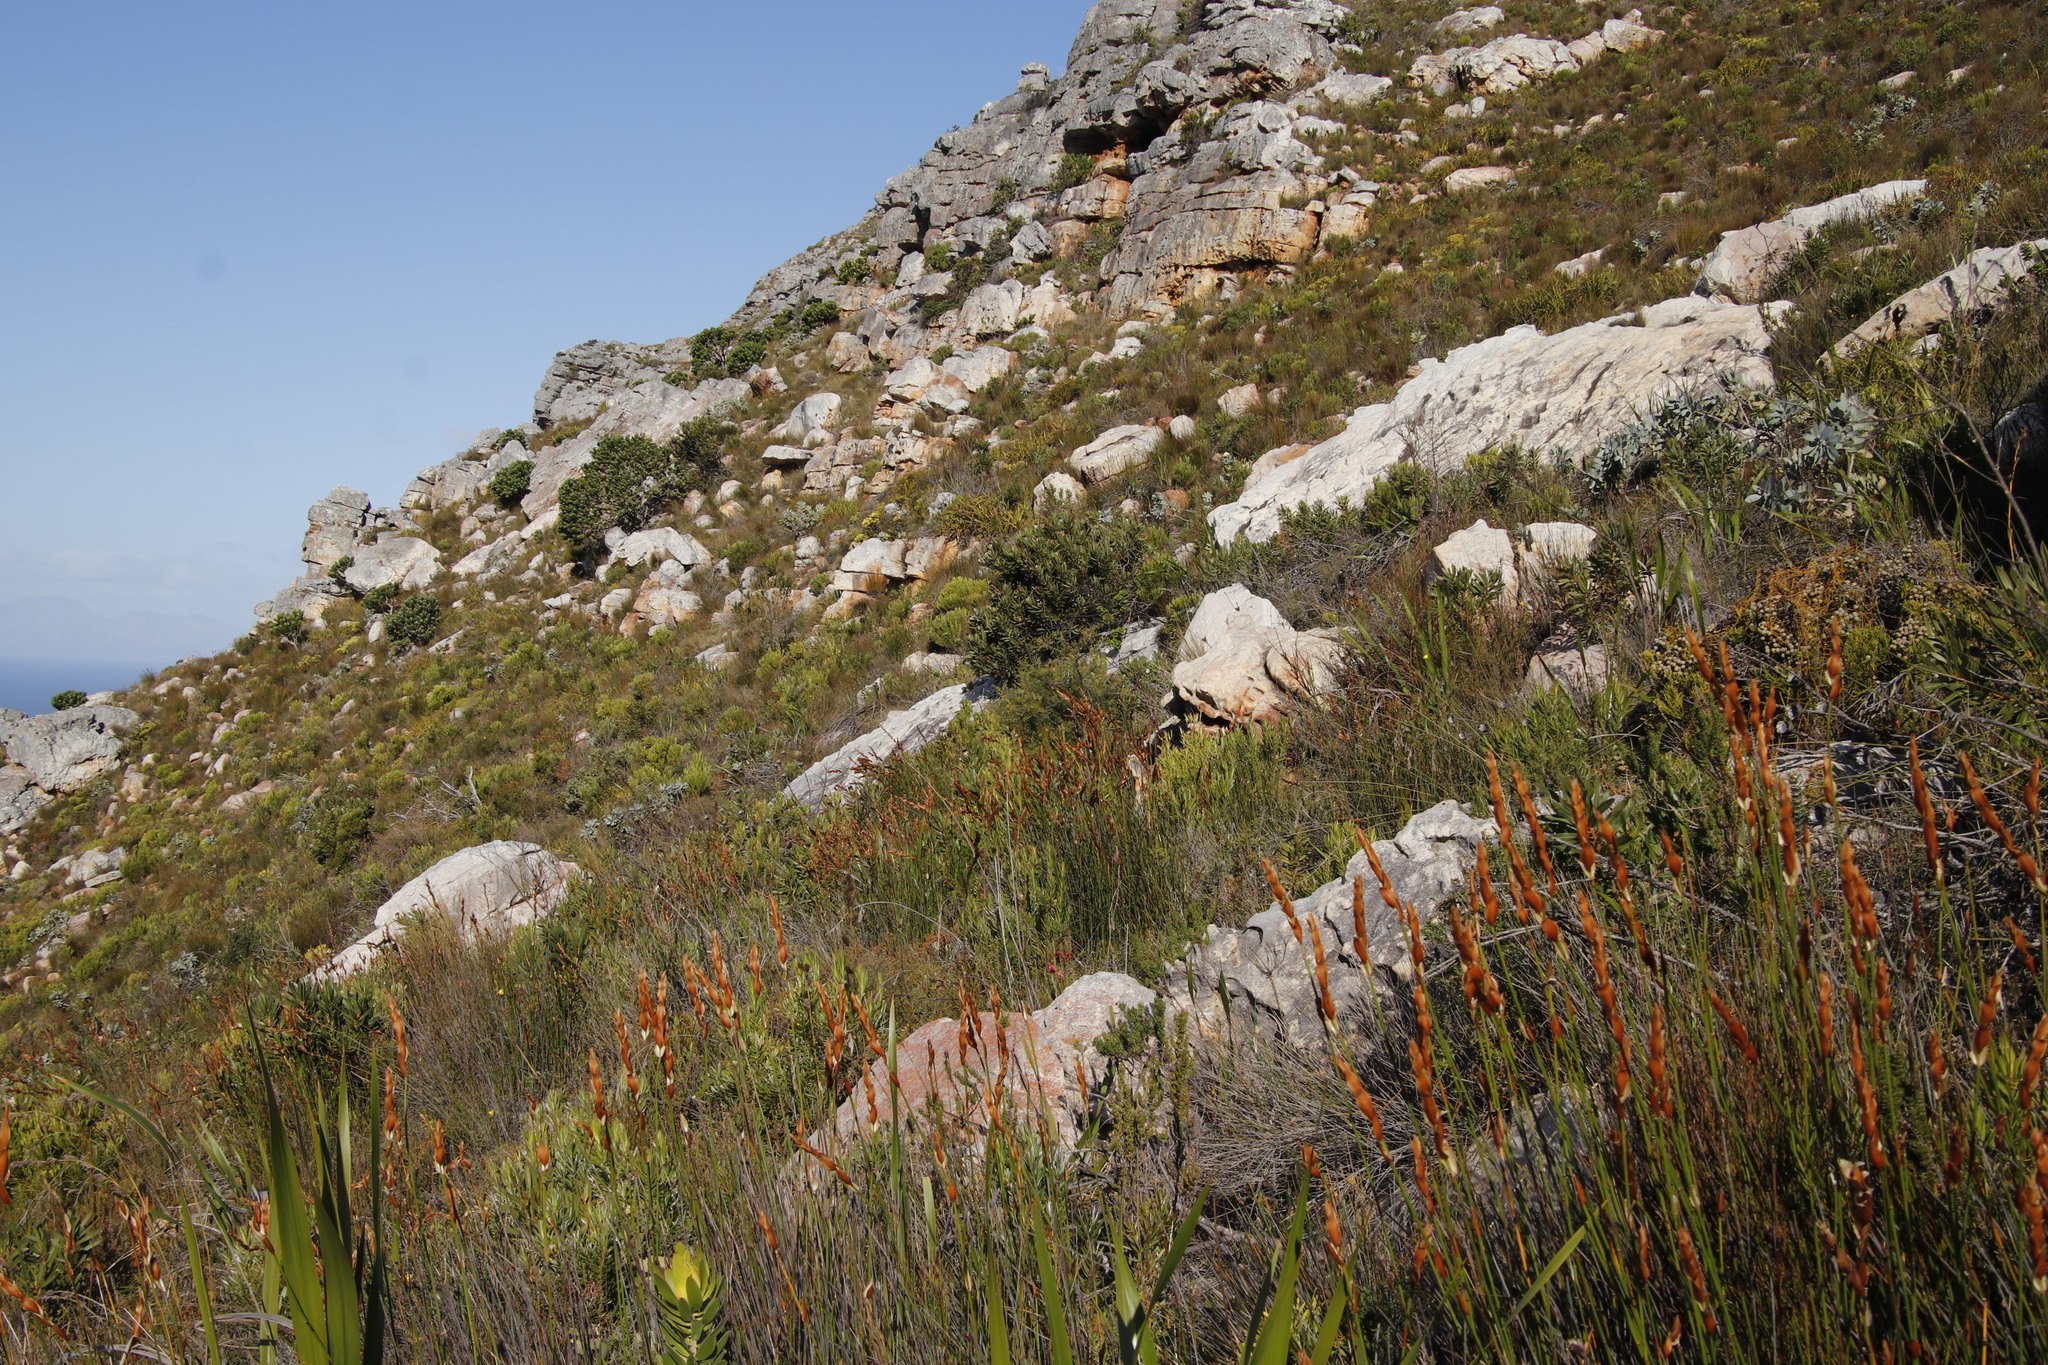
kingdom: Plantae
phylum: Tracheophyta
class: Magnoliopsida
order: Proteales
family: Proteaceae
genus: Hakea
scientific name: Hakea sericea
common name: Needle bush
